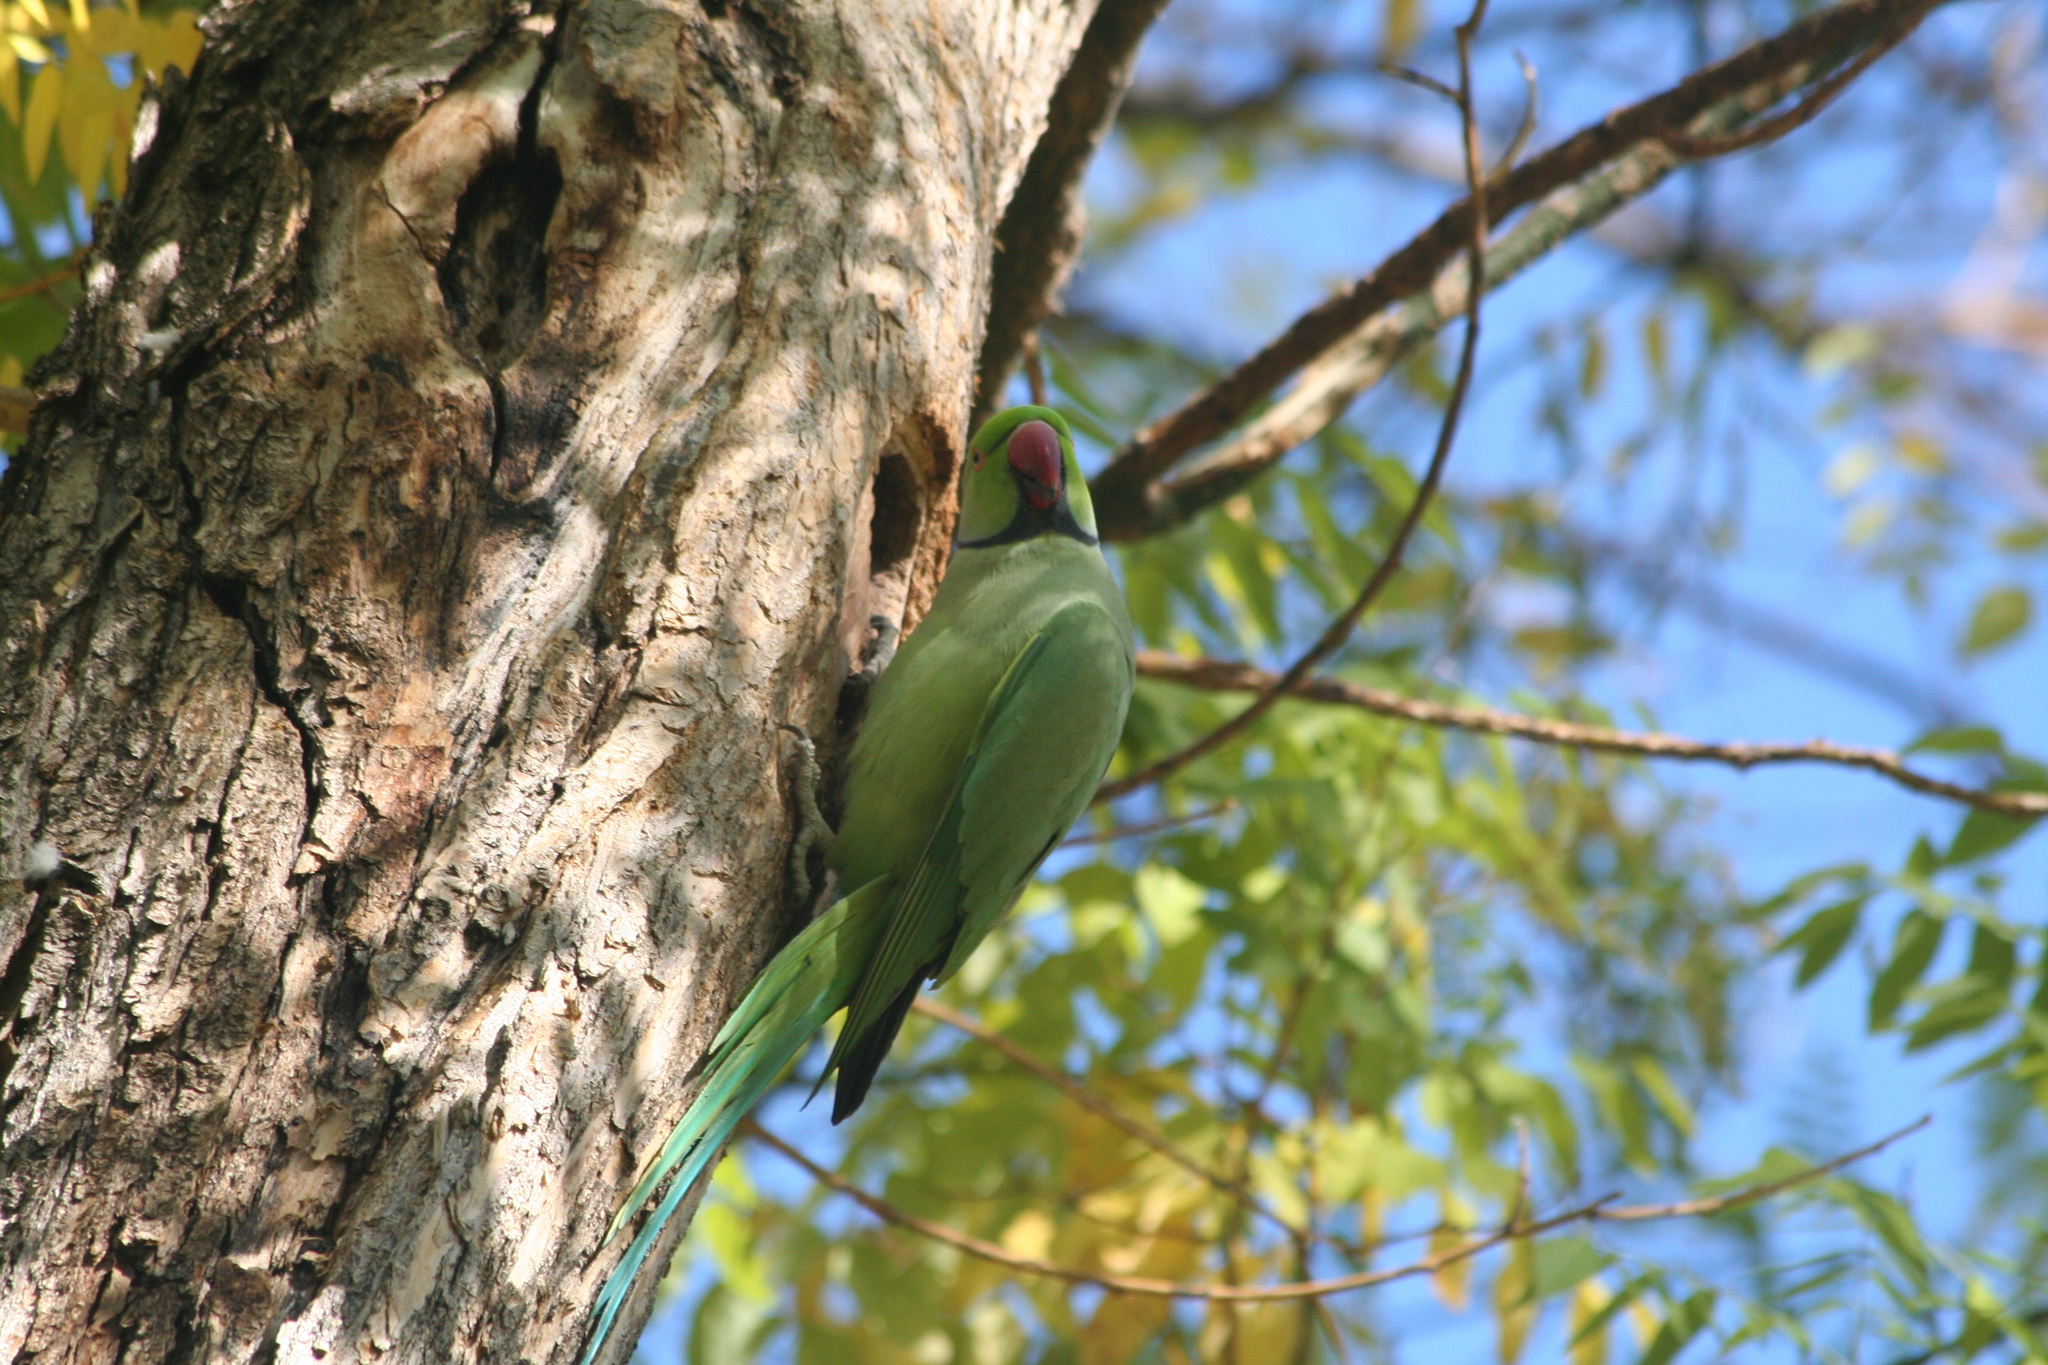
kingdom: Animalia
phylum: Chordata
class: Aves
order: Psittaciformes
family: Psittacidae
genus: Psittacula
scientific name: Psittacula krameri
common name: Rose-ringed parakeet
